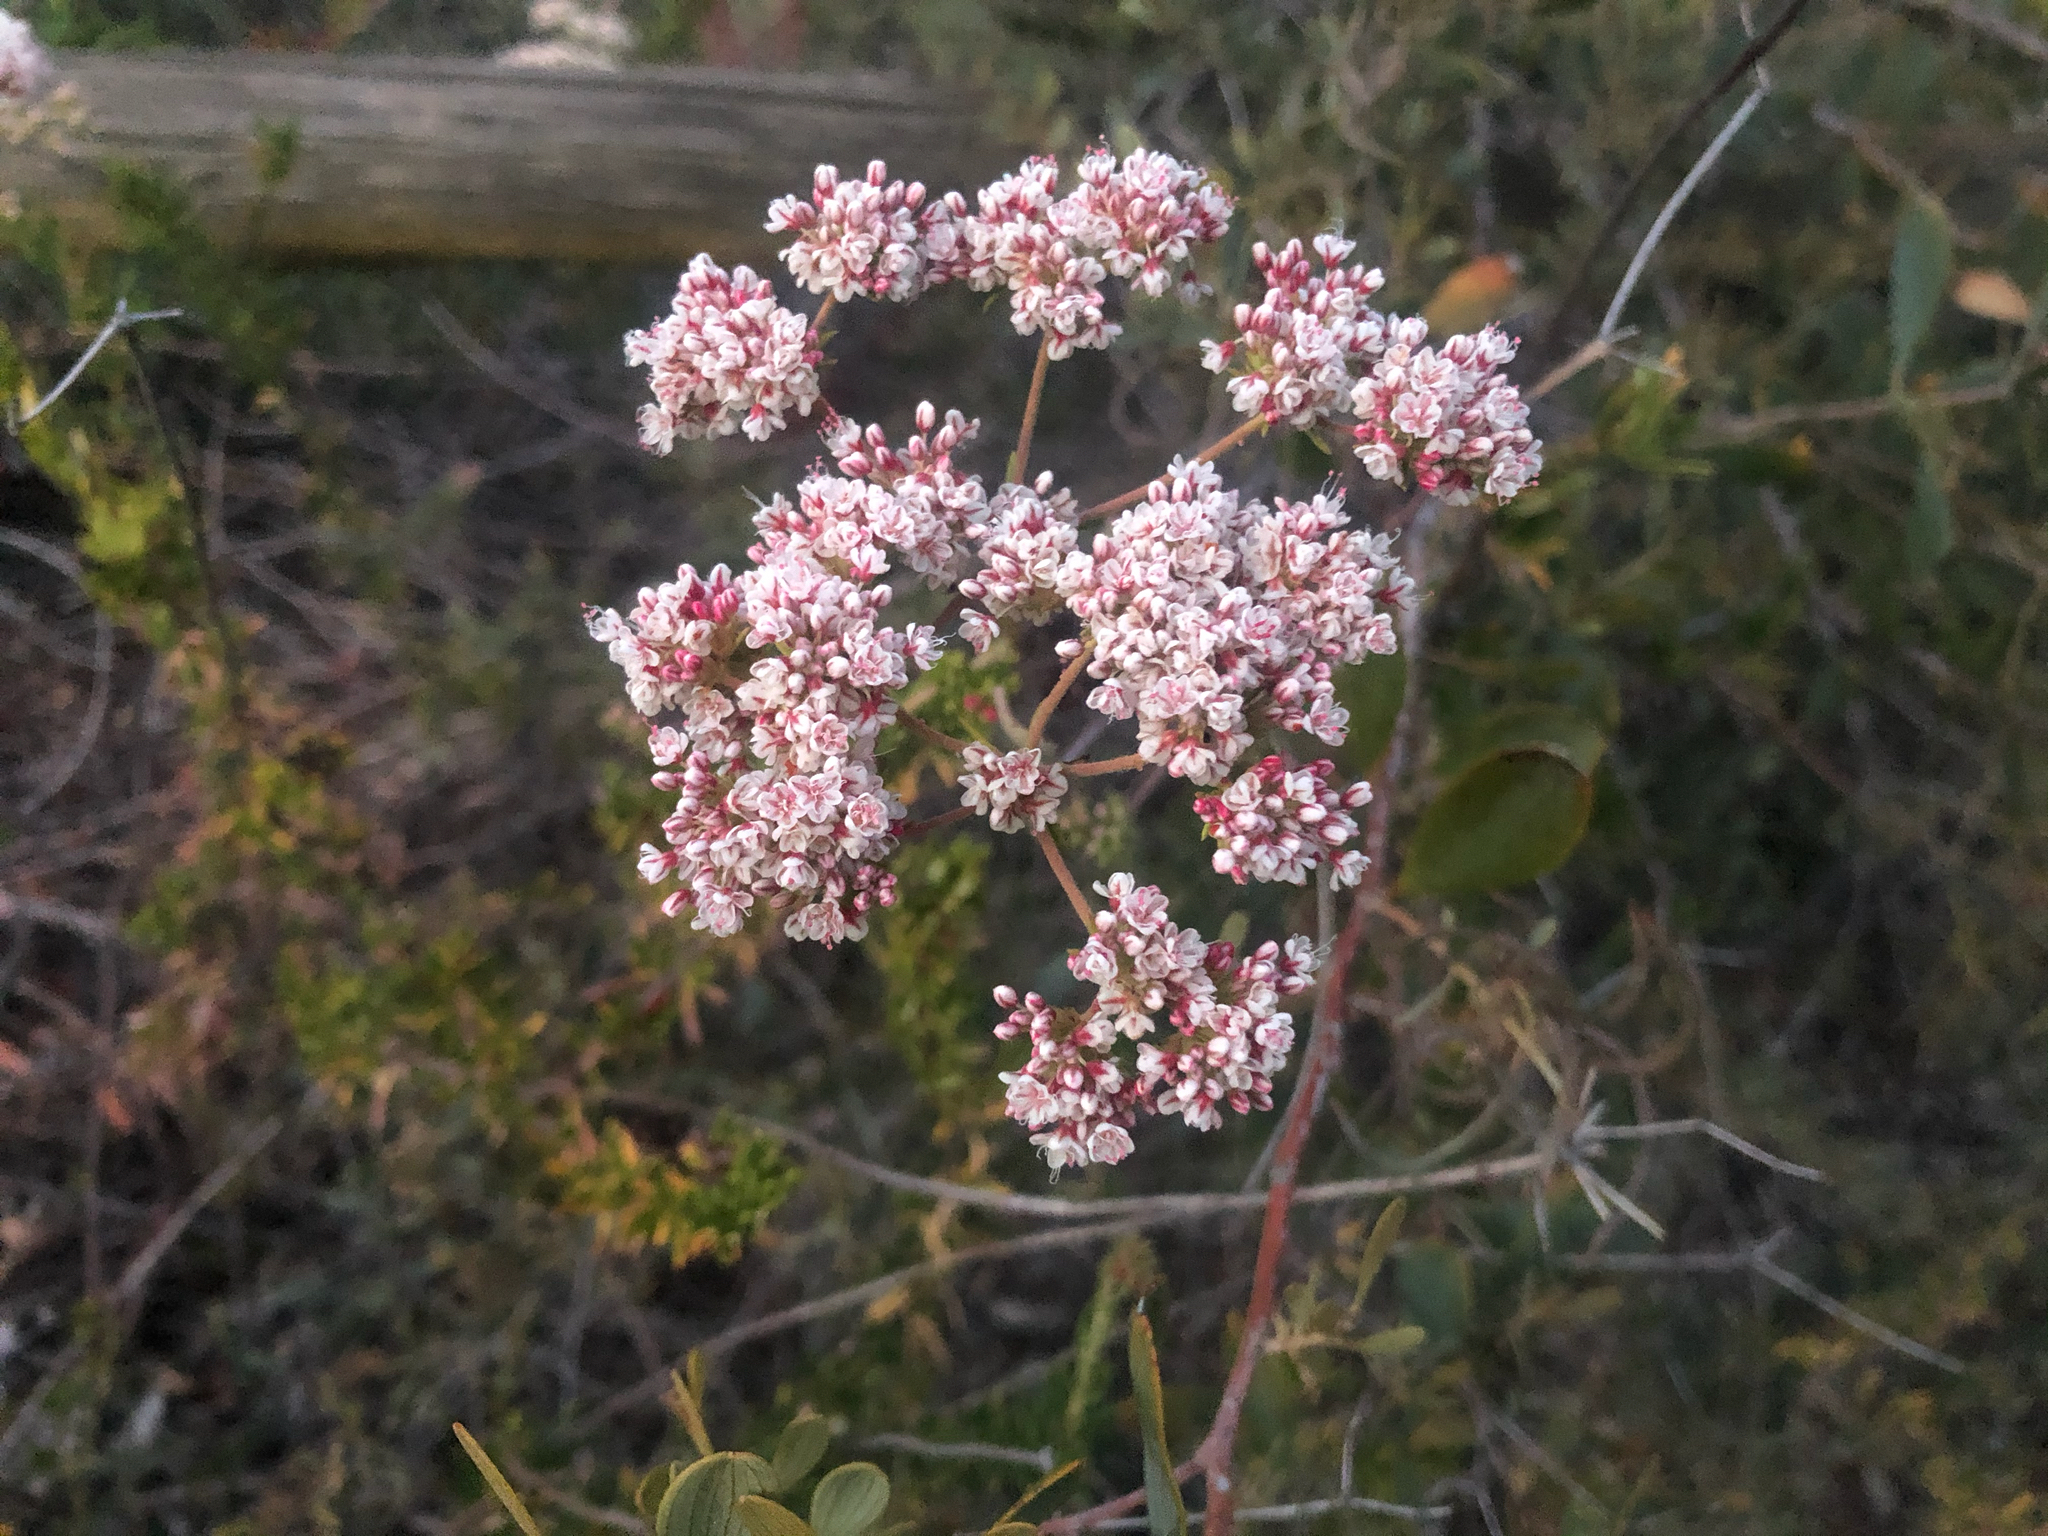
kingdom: Plantae
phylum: Tracheophyta
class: Magnoliopsida
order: Caryophyllales
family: Polygonaceae
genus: Eriogonum
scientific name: Eriogonum fasciculatum
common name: California wild buckwheat
